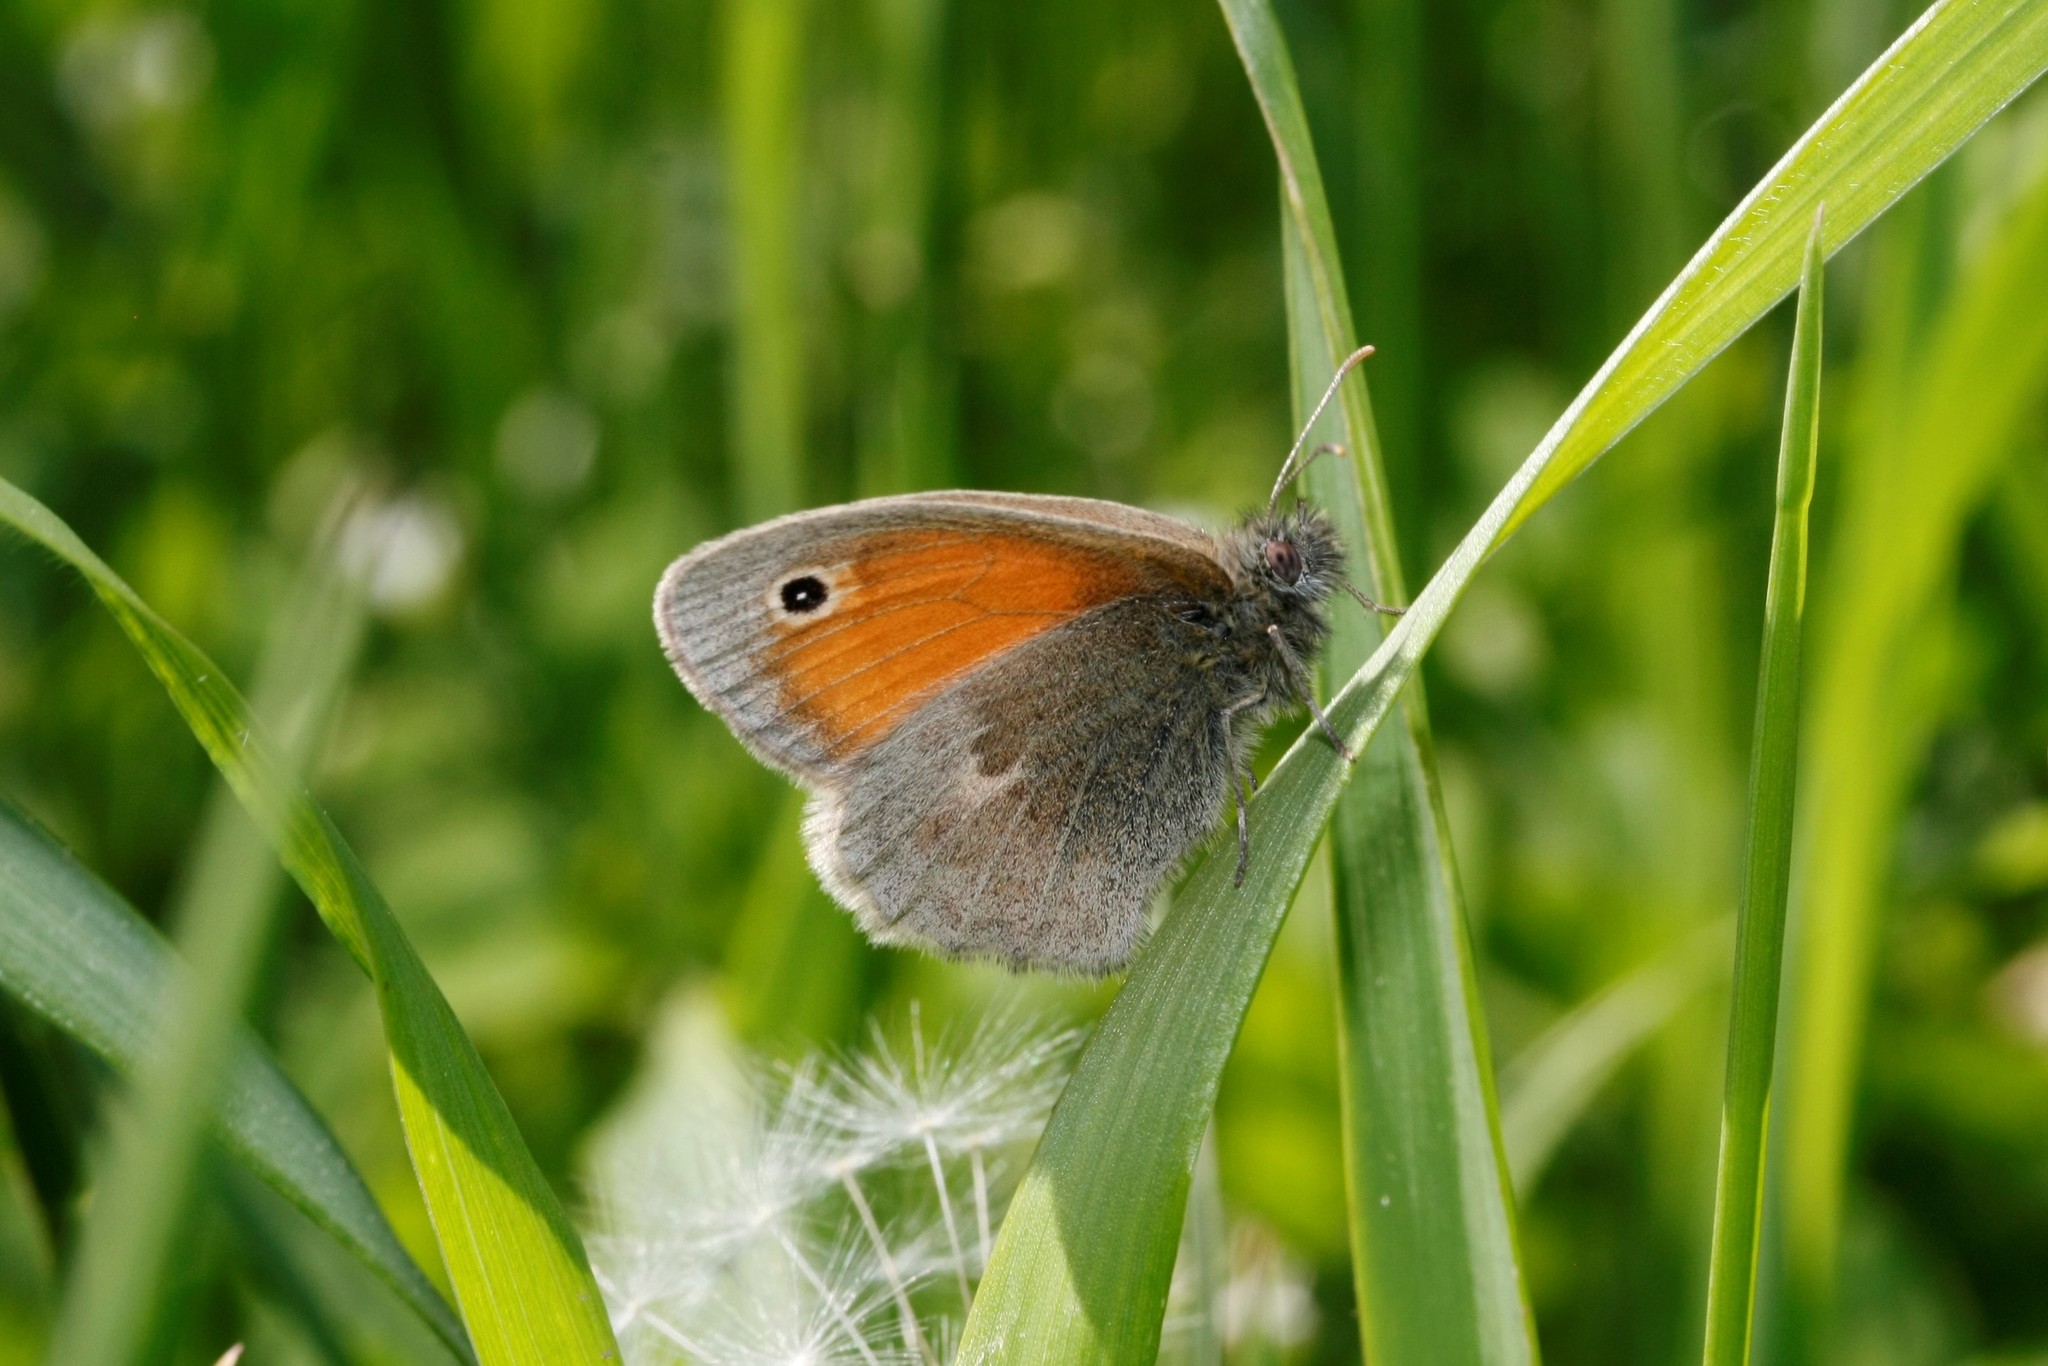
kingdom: Animalia
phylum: Arthropoda
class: Insecta
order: Lepidoptera
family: Nymphalidae
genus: Coenonympha
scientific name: Coenonympha pamphilus
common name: Small heath
